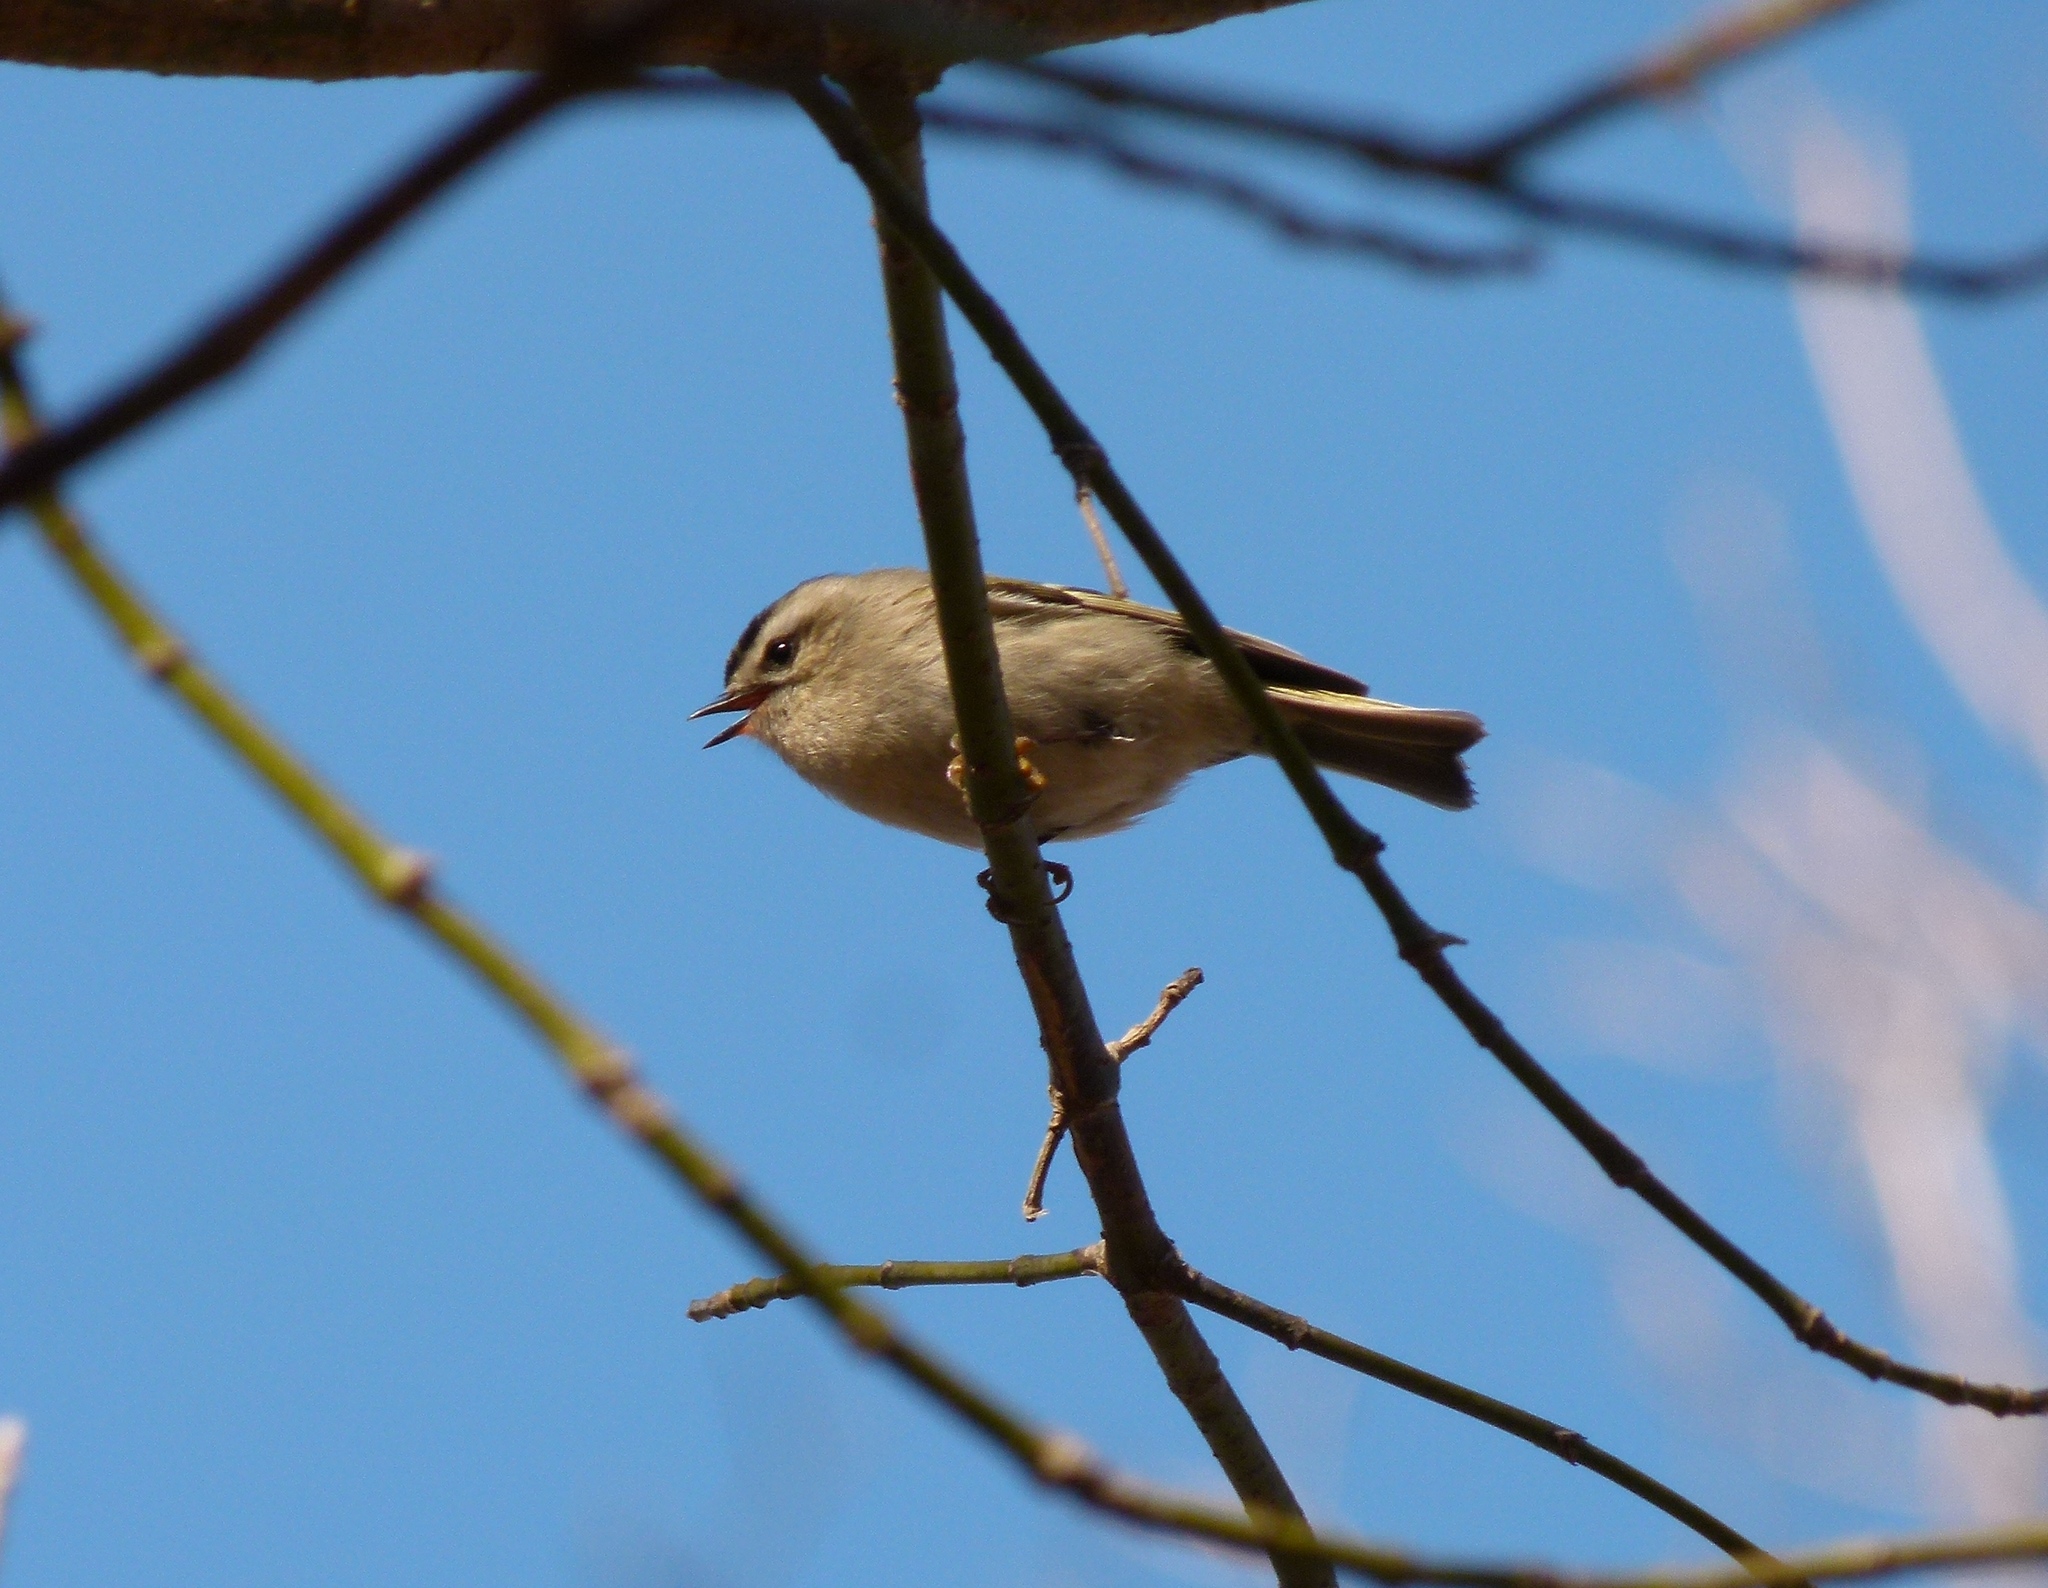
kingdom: Animalia
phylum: Chordata
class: Aves
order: Passeriformes
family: Regulidae
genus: Regulus
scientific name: Regulus satrapa
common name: Golden-crowned kinglet
